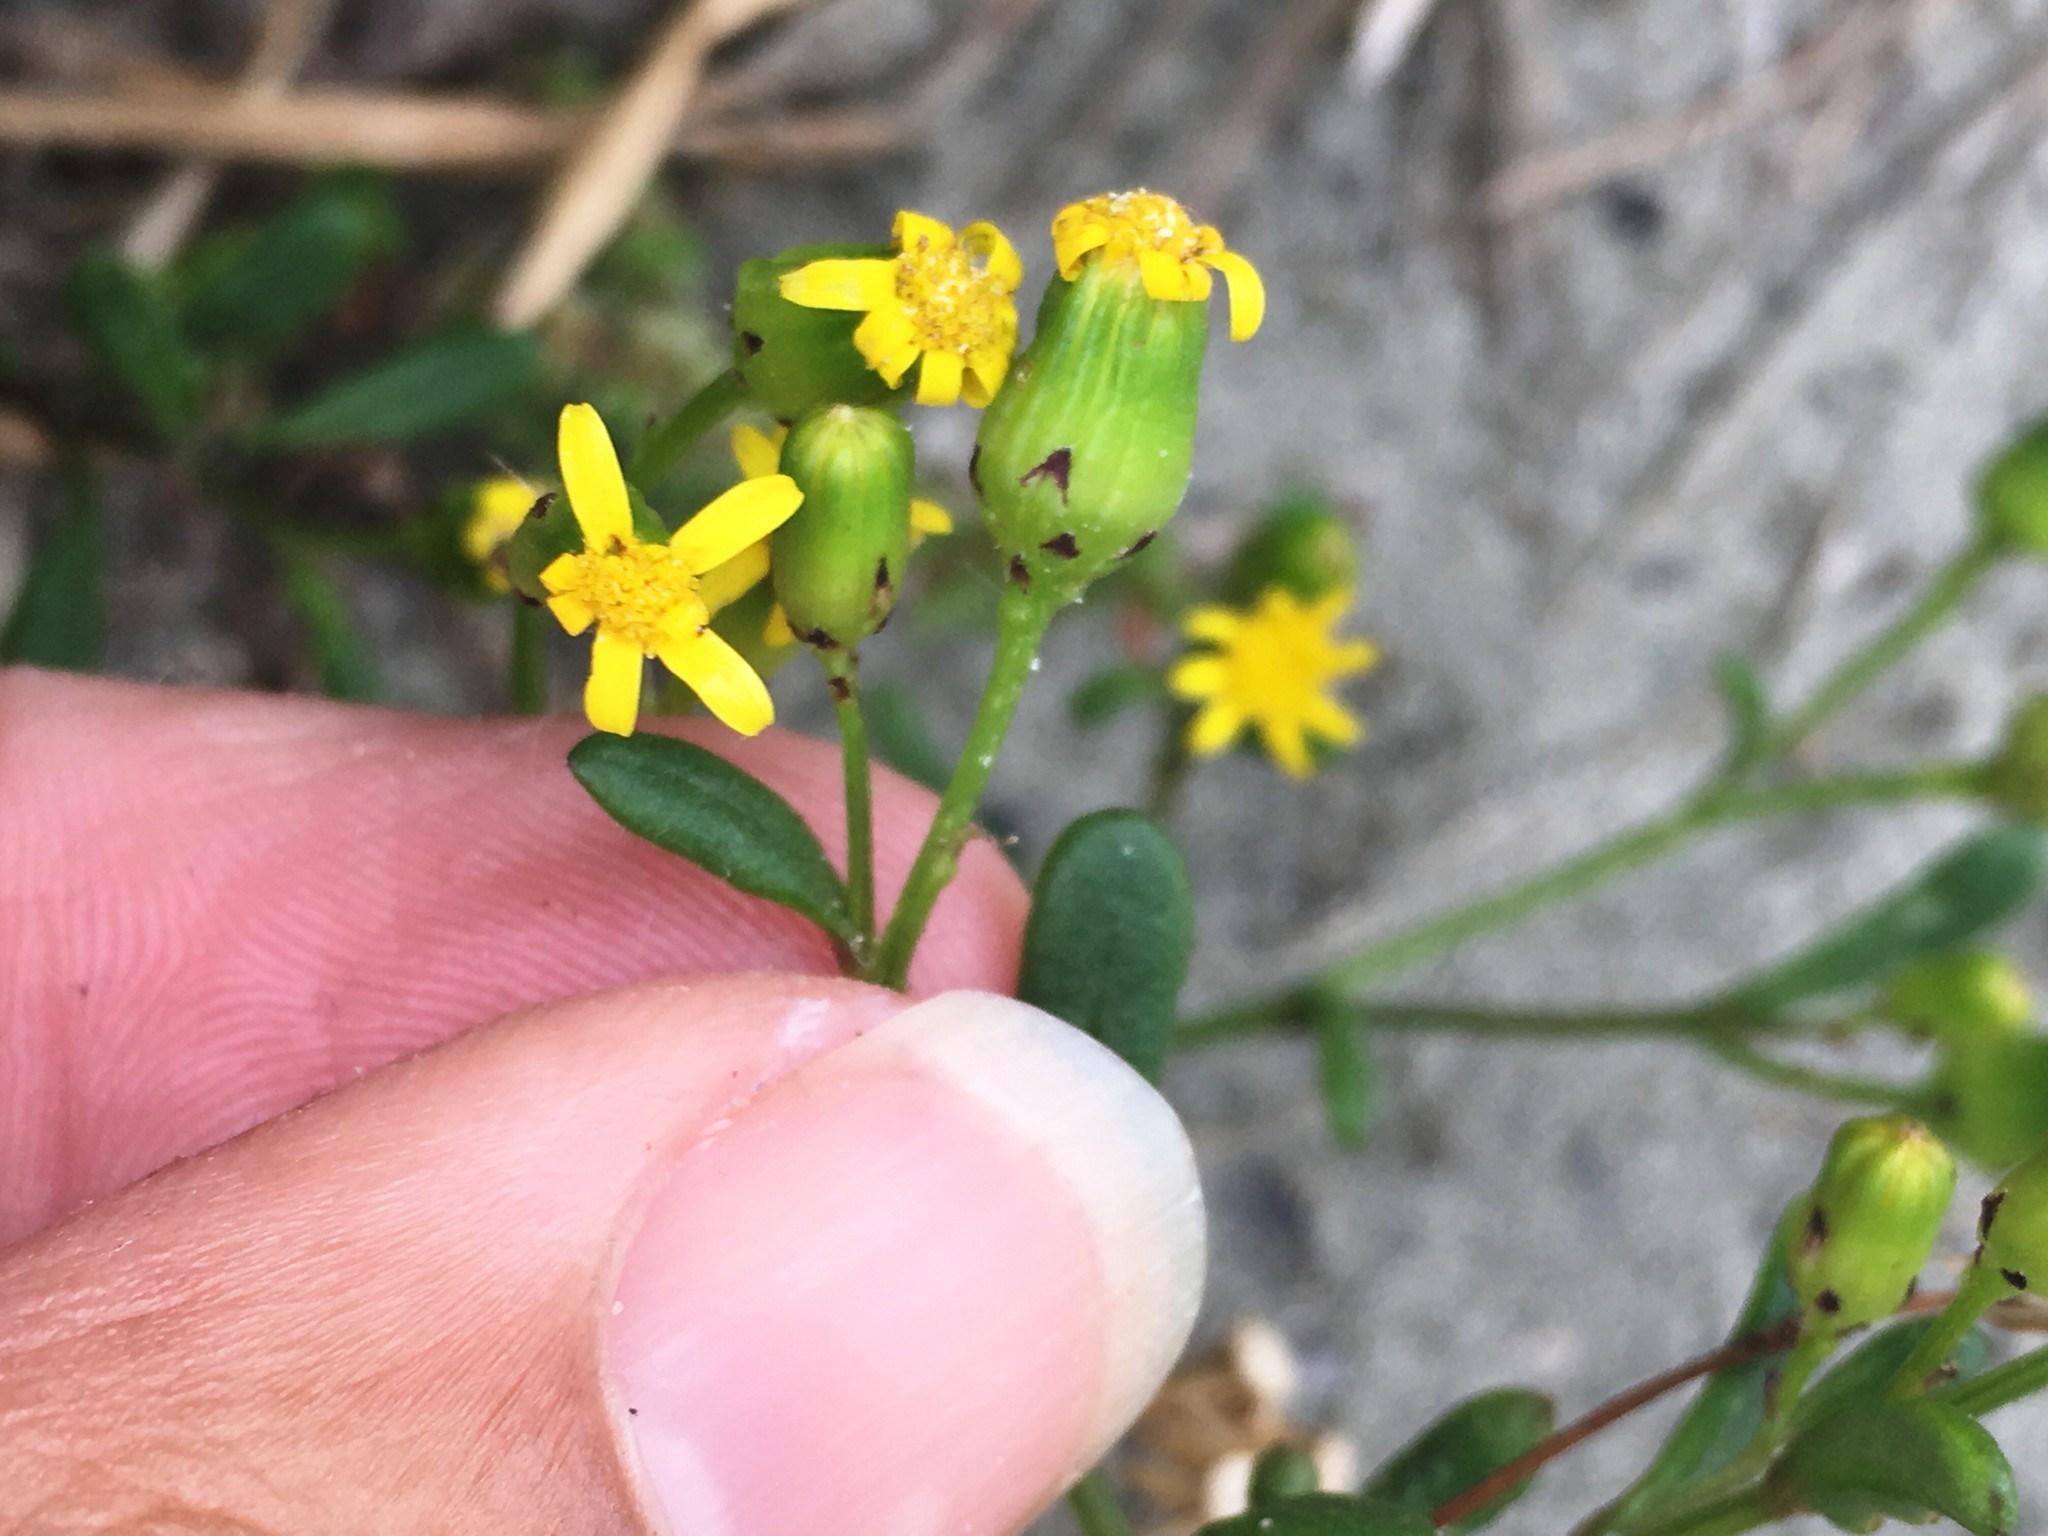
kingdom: Plantae
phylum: Tracheophyta
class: Magnoliopsida
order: Asterales
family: Asteraceae
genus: Senecio
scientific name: Senecio lautus
